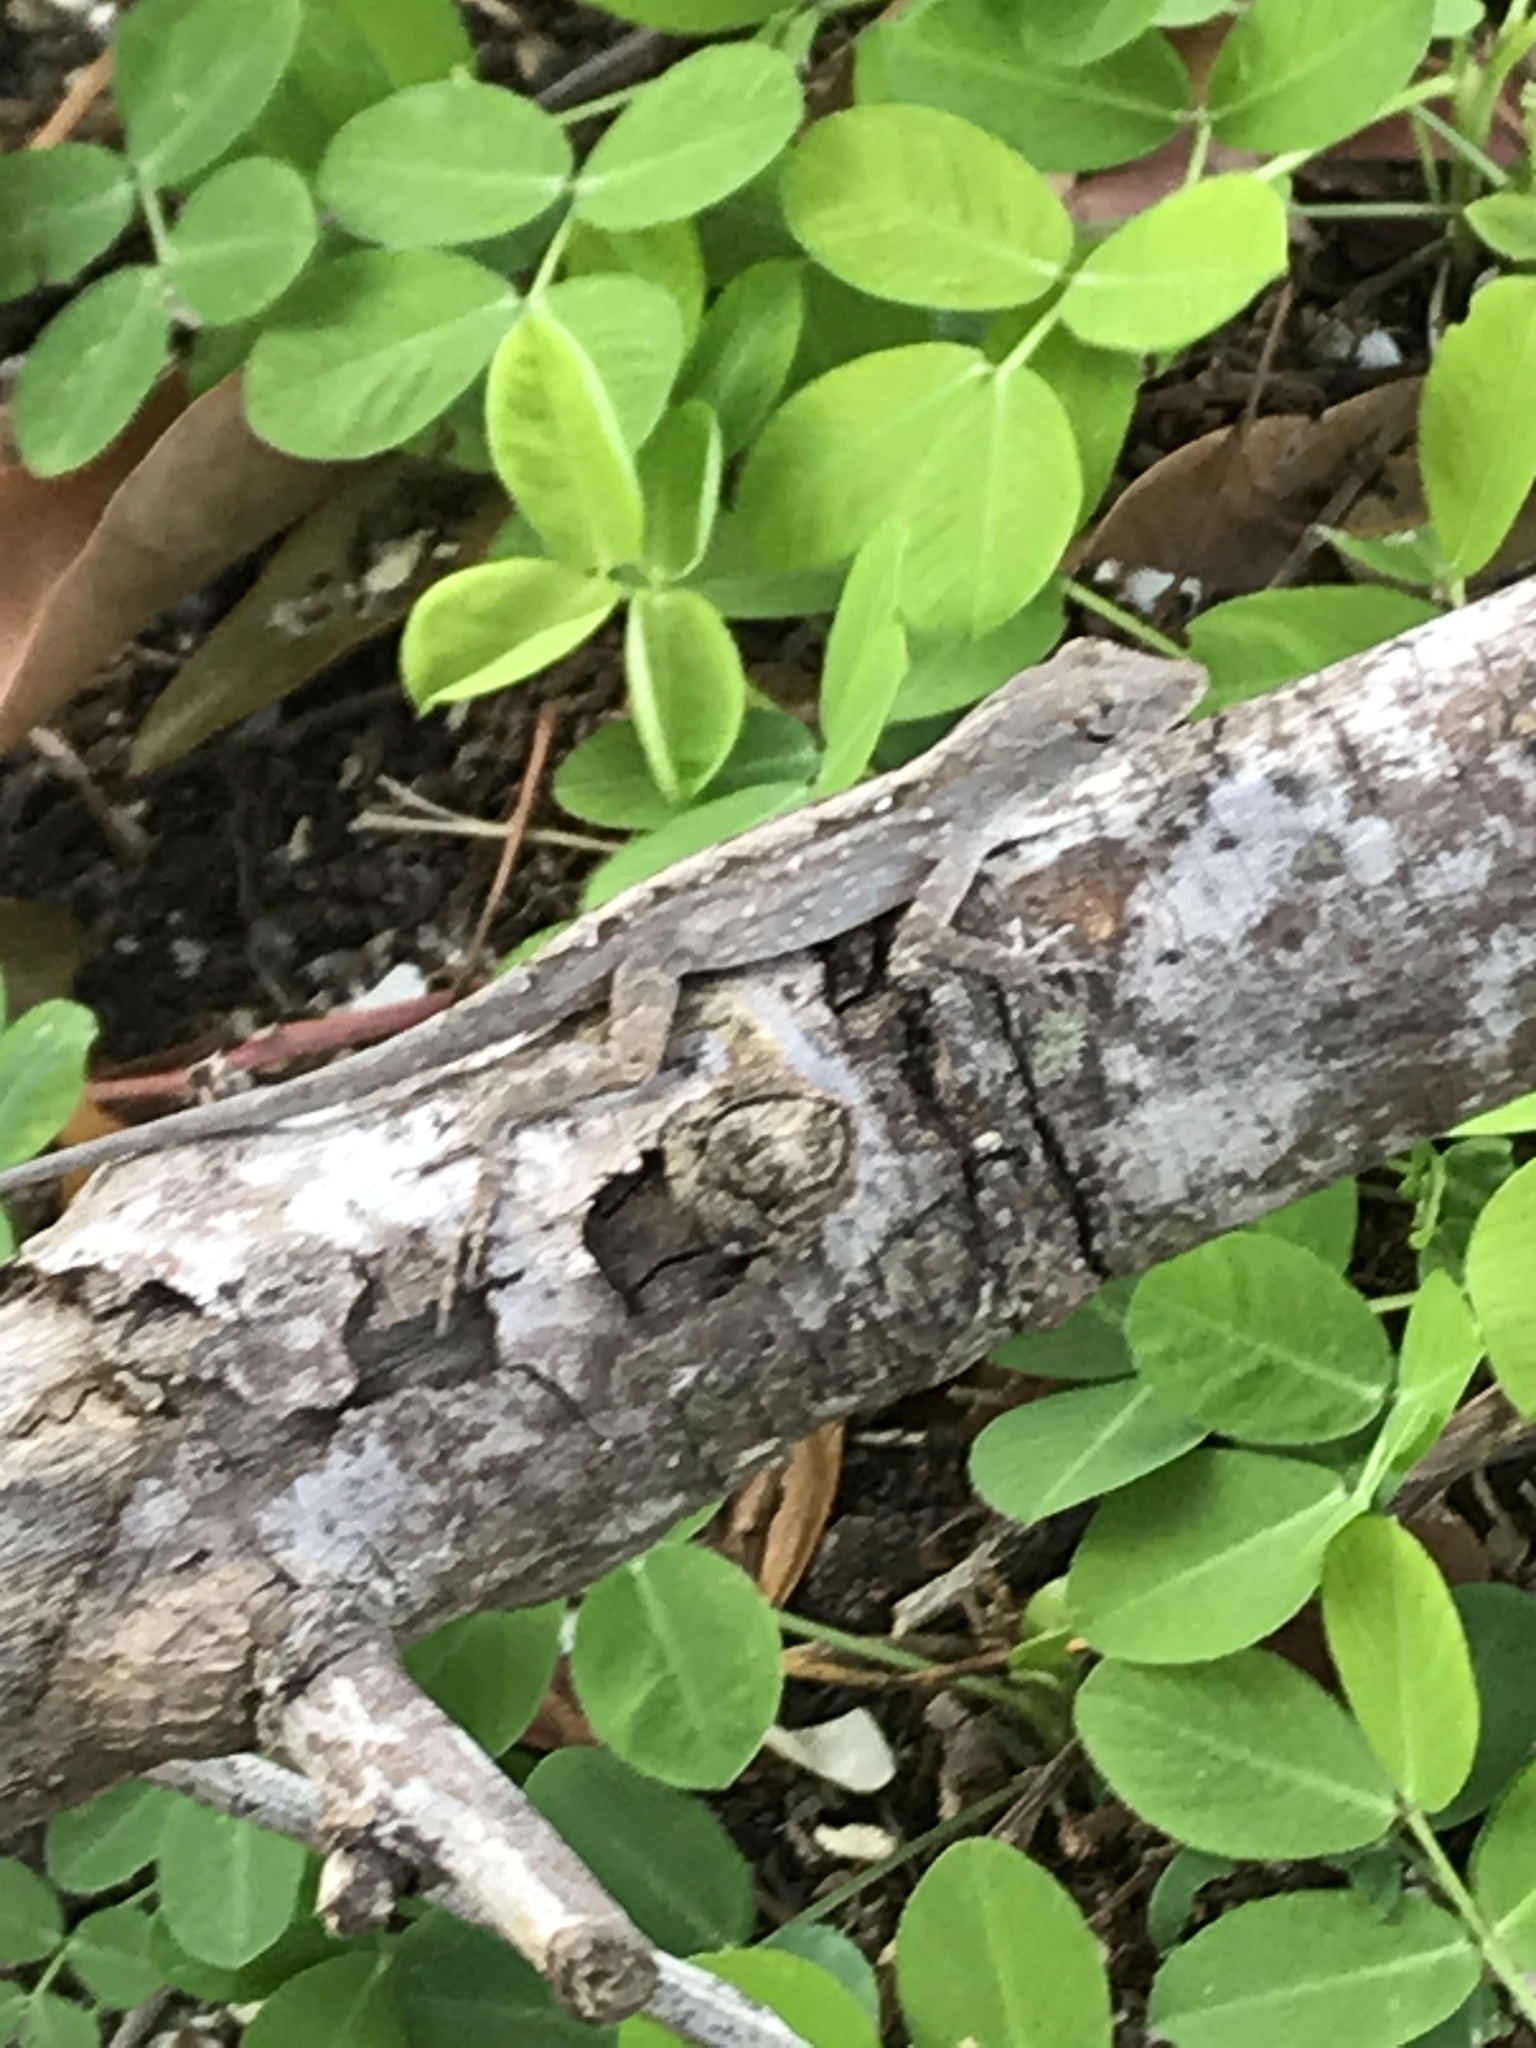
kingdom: Animalia
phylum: Chordata
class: Squamata
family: Dactyloidae
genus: Anolis
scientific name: Anolis sagrei
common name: Brown anole
